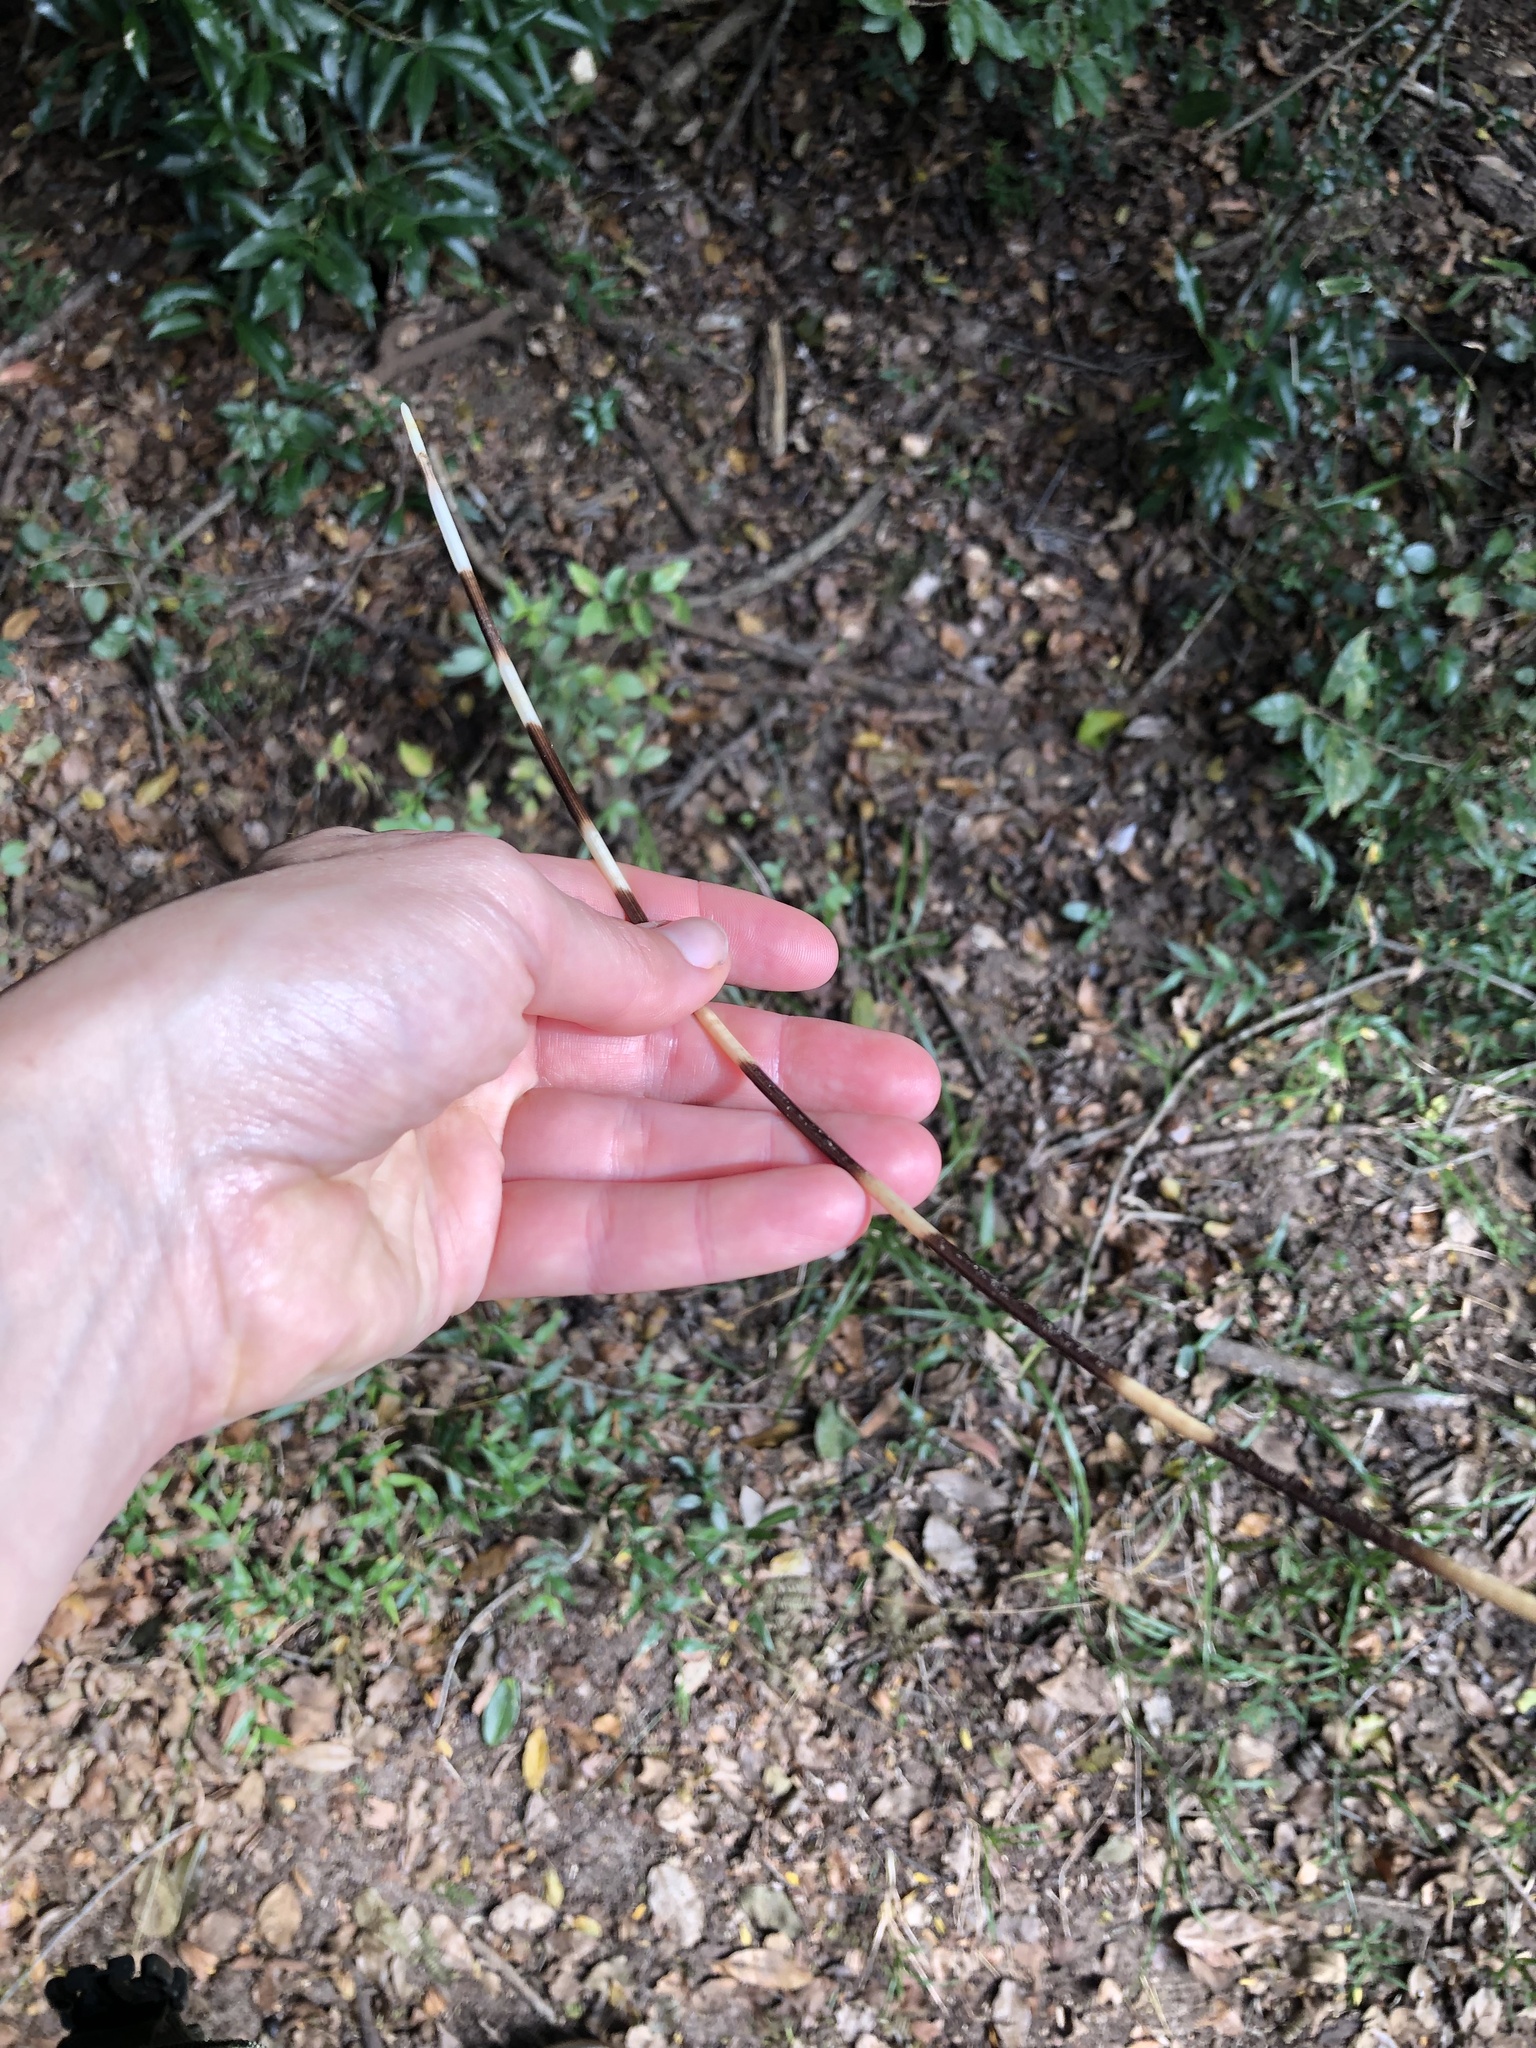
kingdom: Animalia
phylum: Chordata
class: Mammalia
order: Rodentia
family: Hystricidae
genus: Hystrix
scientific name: Hystrix africaeaustralis
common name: Cape porcupine
